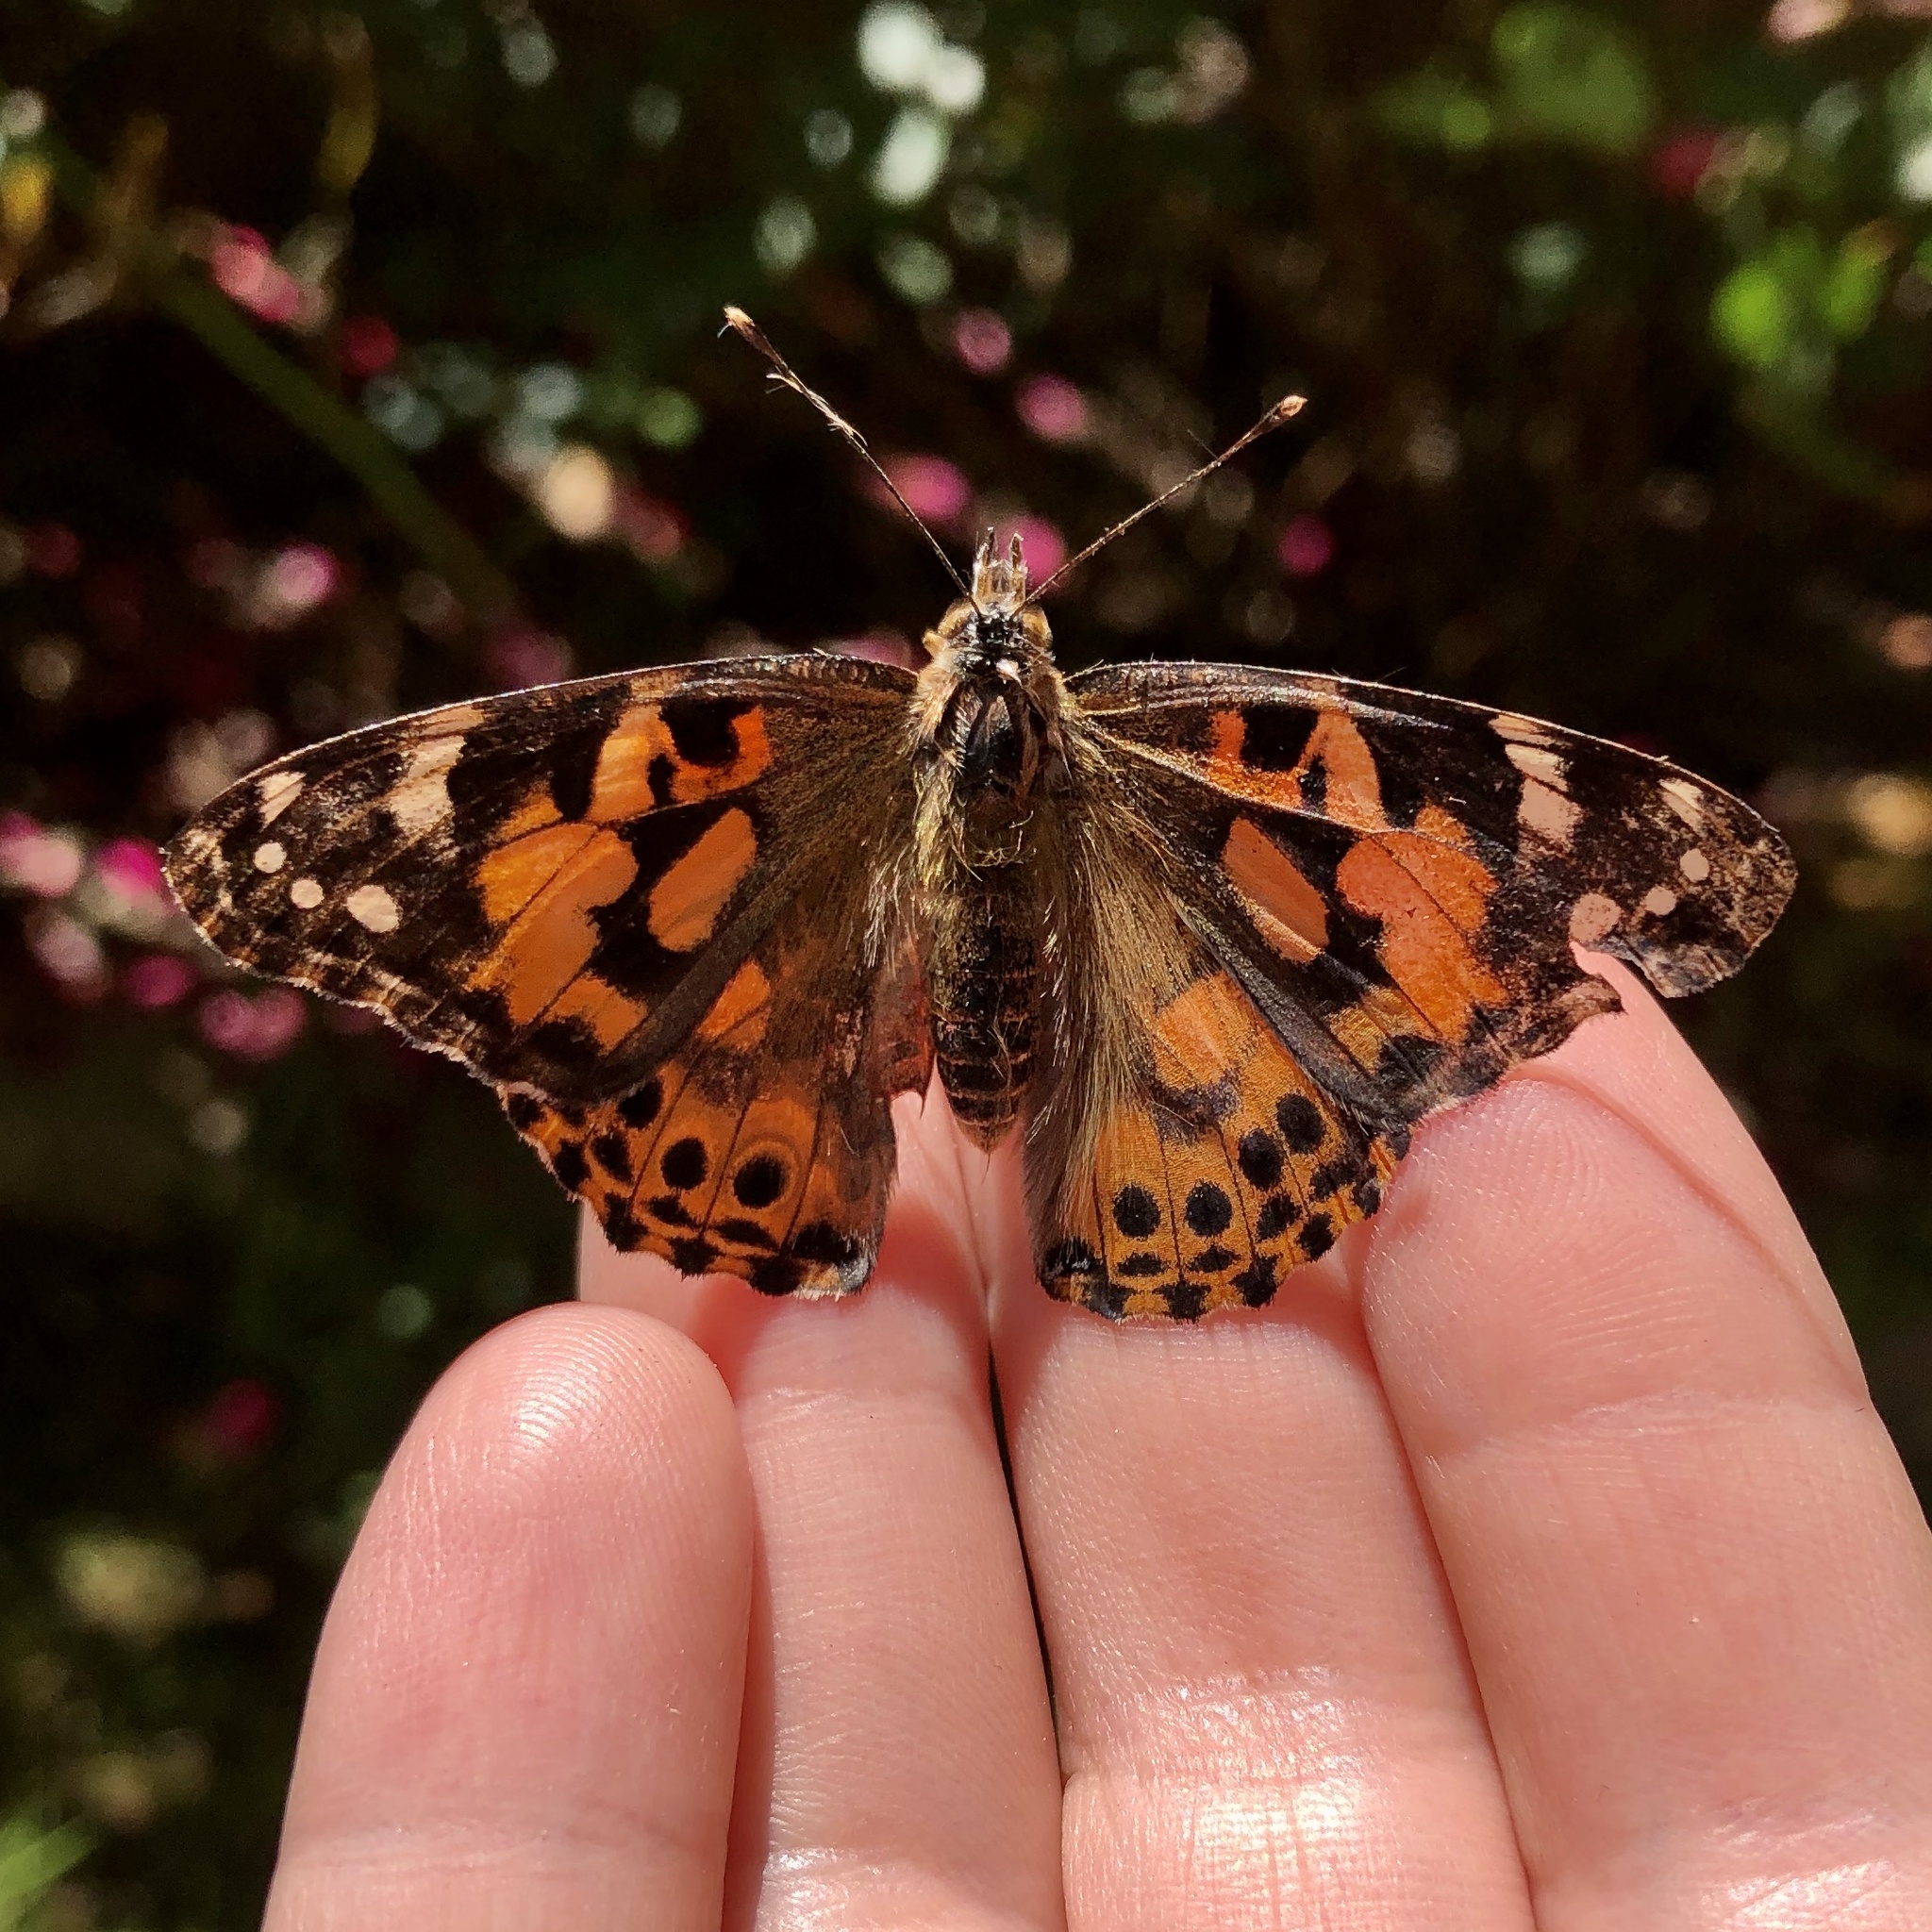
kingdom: Animalia
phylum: Arthropoda
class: Insecta
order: Lepidoptera
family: Nymphalidae
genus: Vanessa
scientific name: Vanessa cardui
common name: Painted lady
